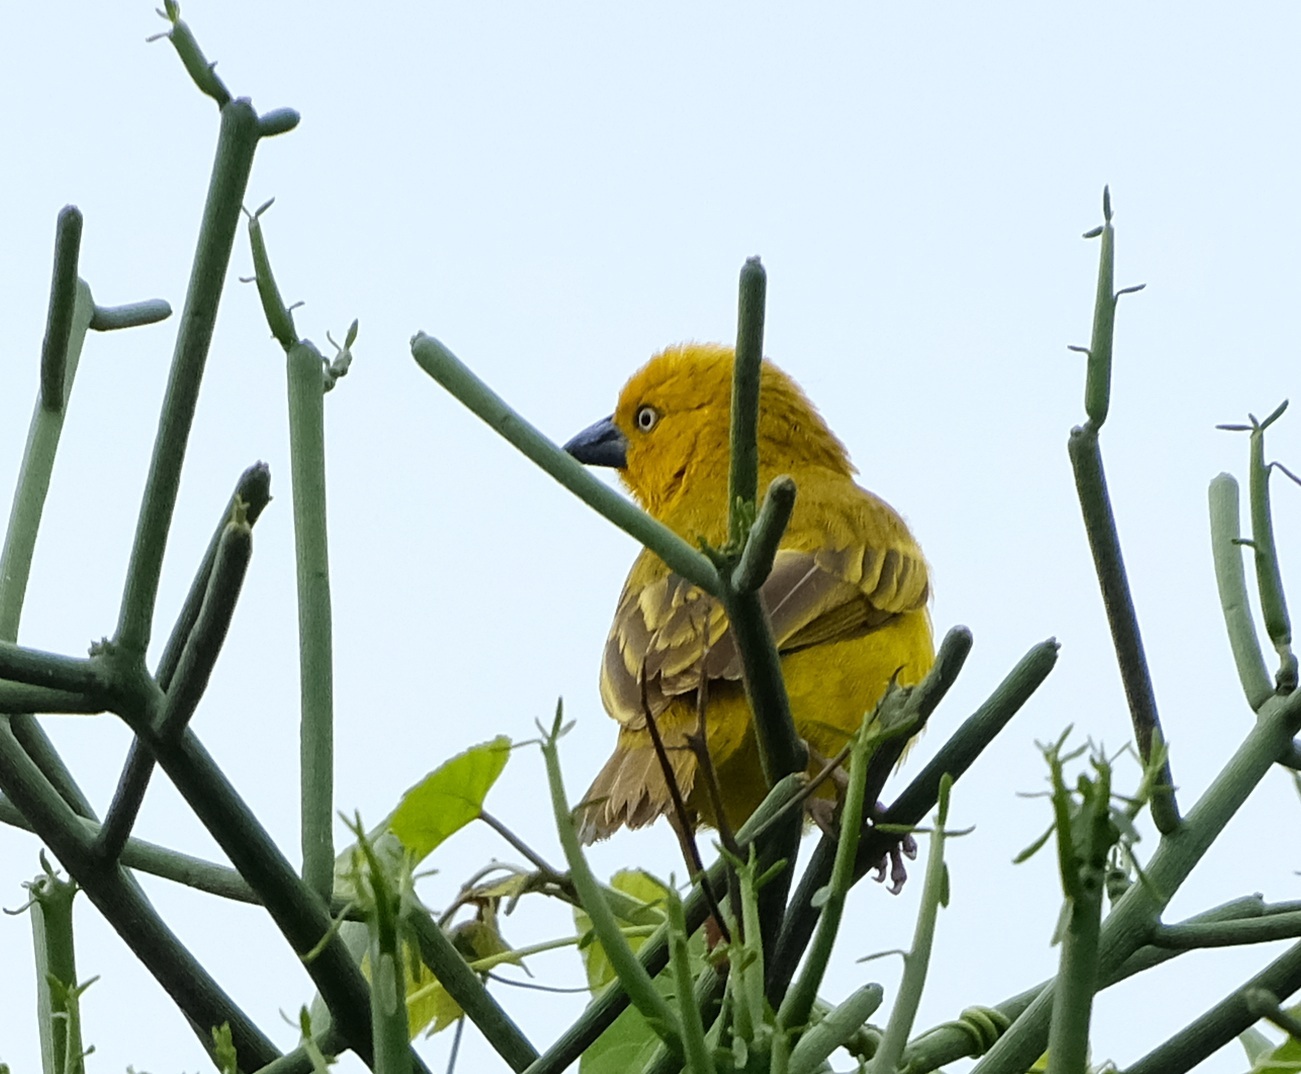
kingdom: Animalia
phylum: Chordata
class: Aves
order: Passeriformes
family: Ploceidae
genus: Ploceus
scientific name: Ploceus xanthops
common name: Holub's golden weaver
